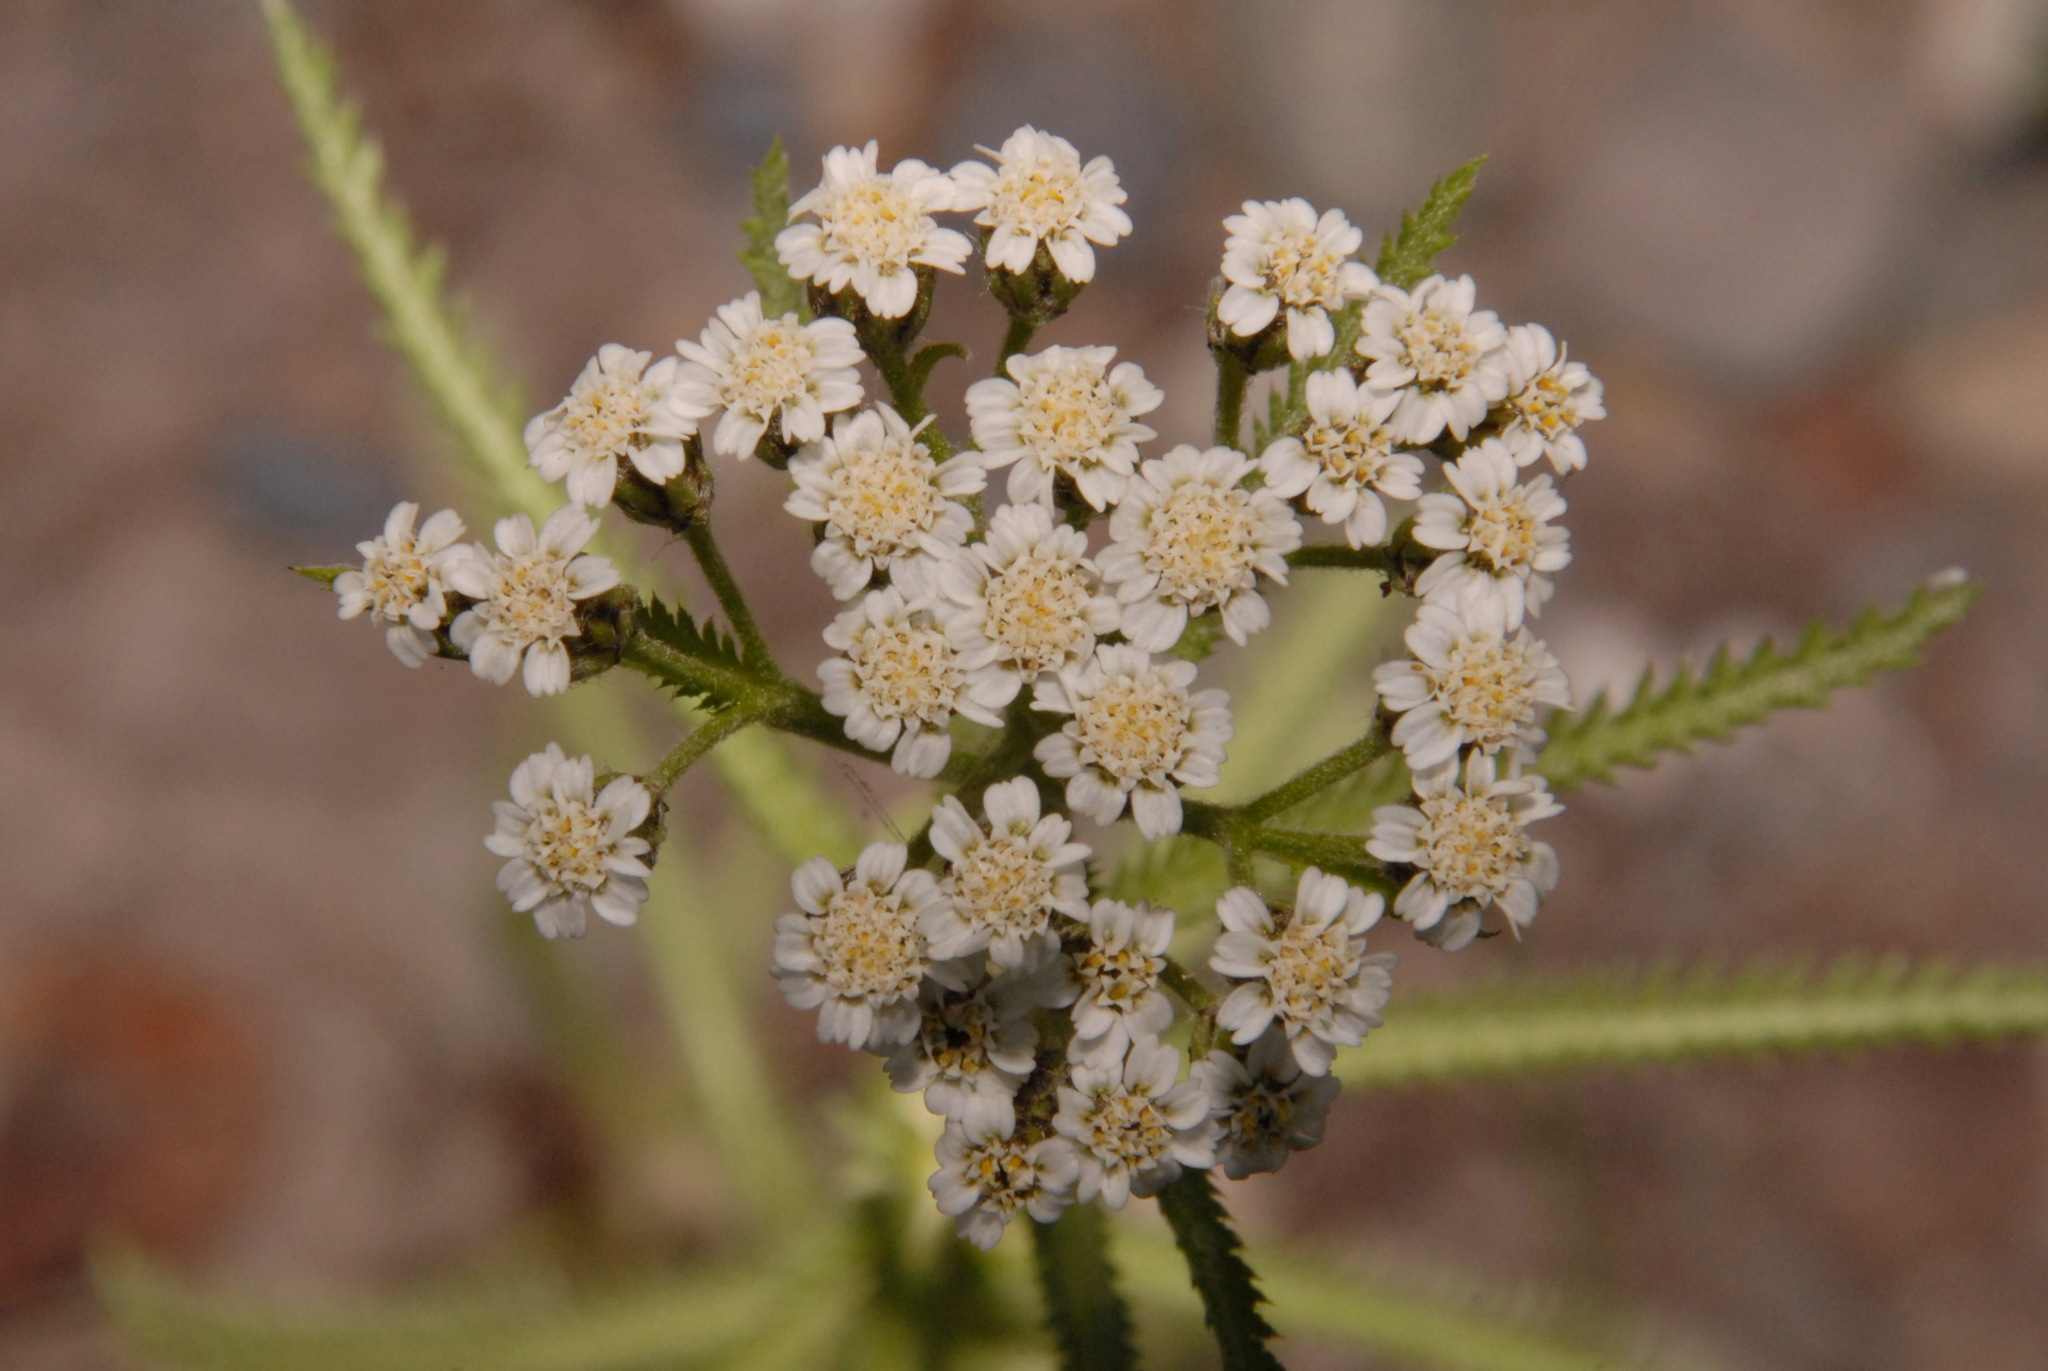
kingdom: Plantae
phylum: Tracheophyta
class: Magnoliopsida
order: Asterales
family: Asteraceae
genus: Achillea
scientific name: Achillea alpina
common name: Siberian yarrow
